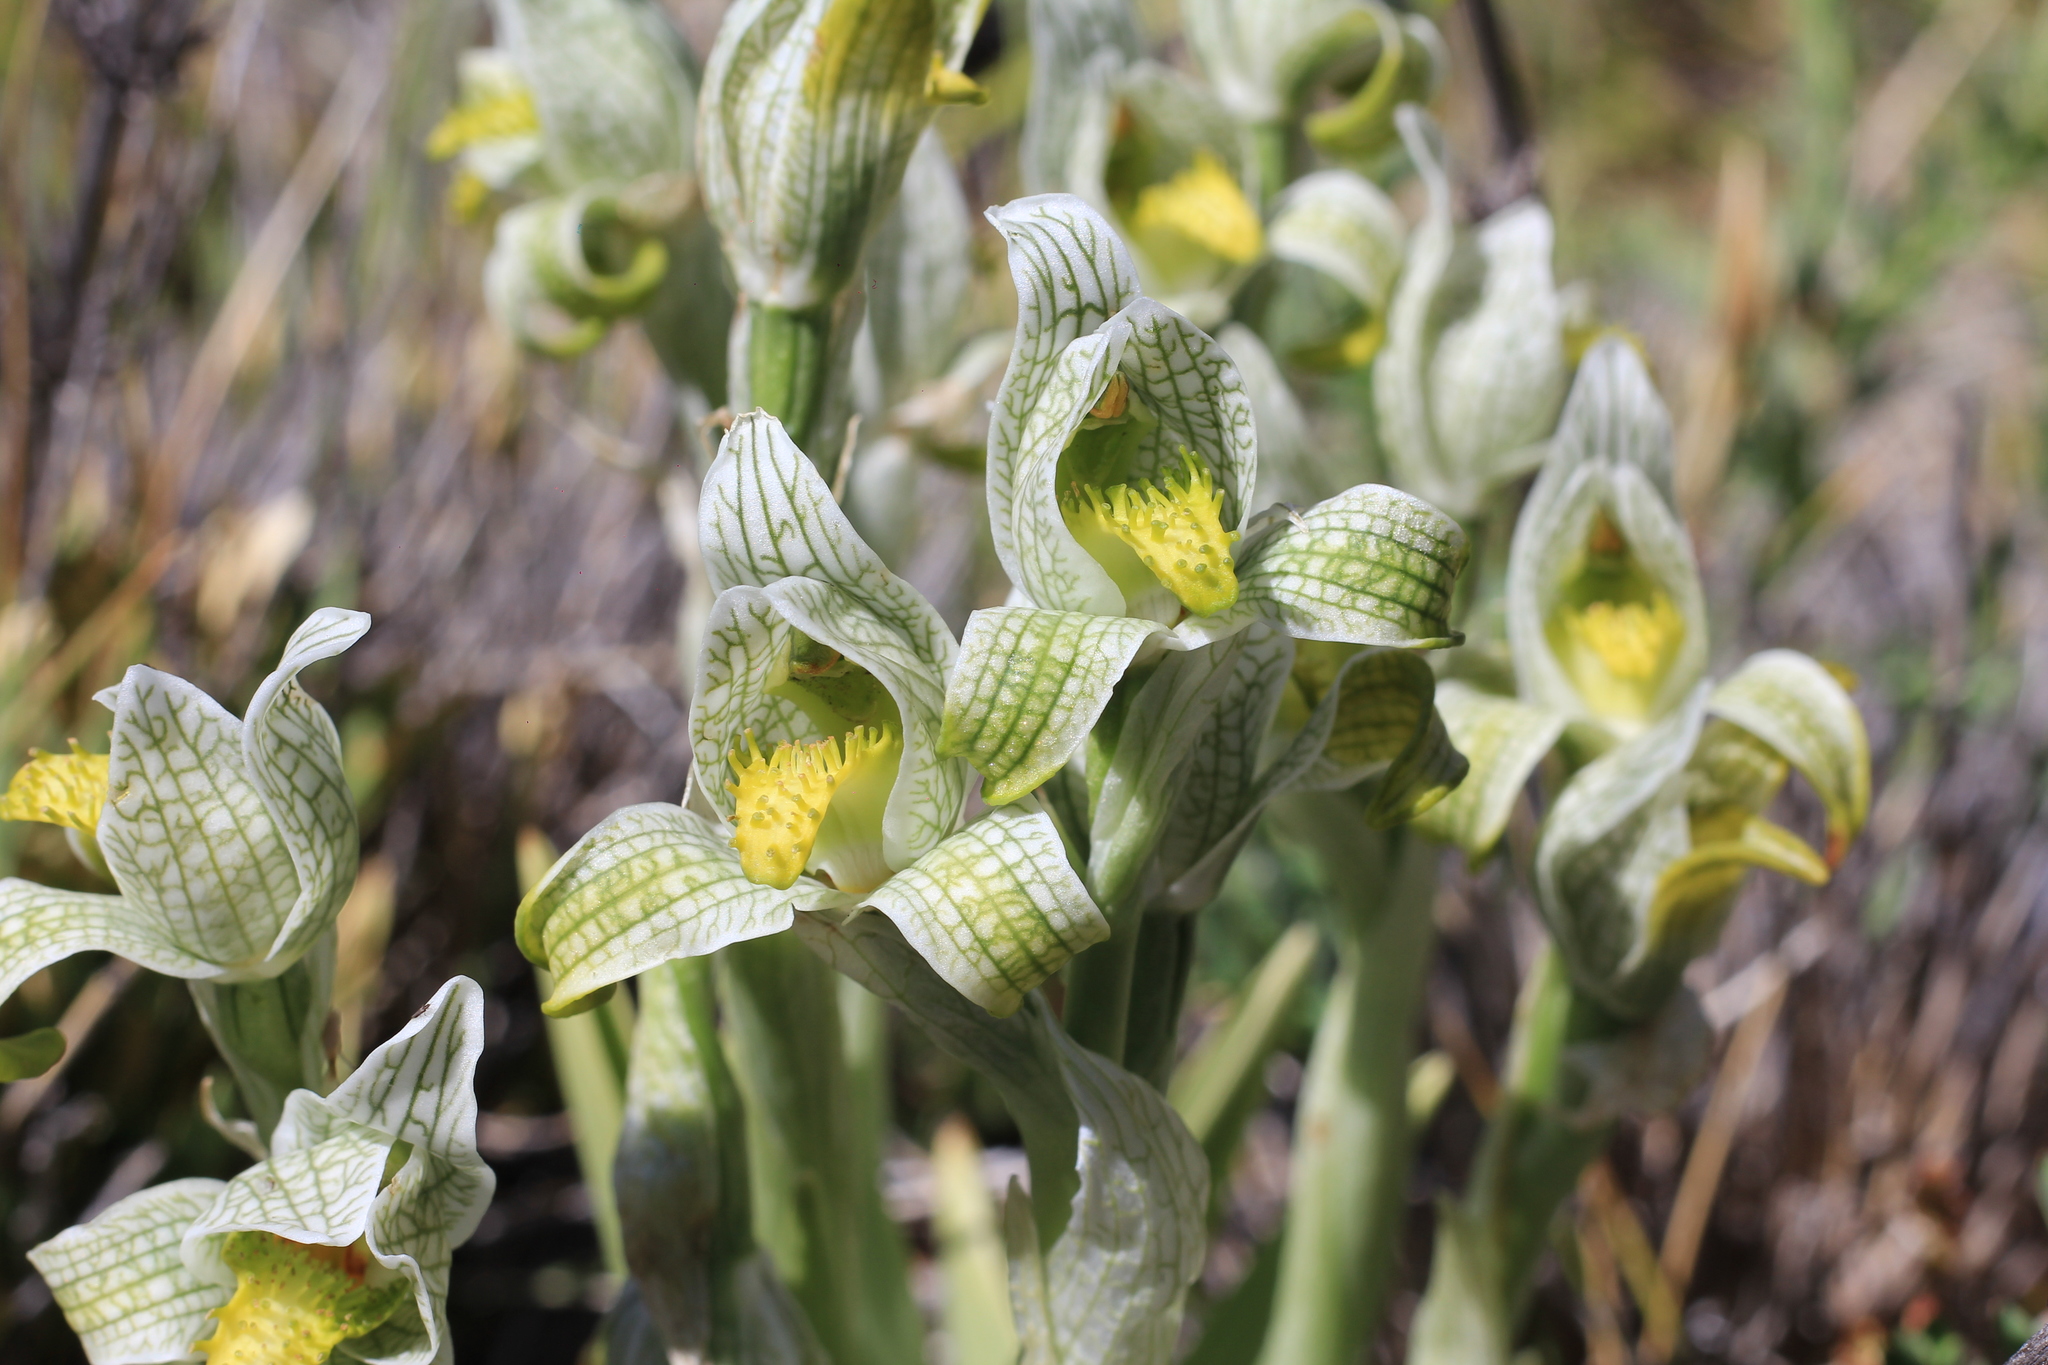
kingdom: Plantae
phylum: Tracheophyta
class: Liliopsida
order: Asparagales
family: Orchidaceae
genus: Chloraea
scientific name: Chloraea magellanica
